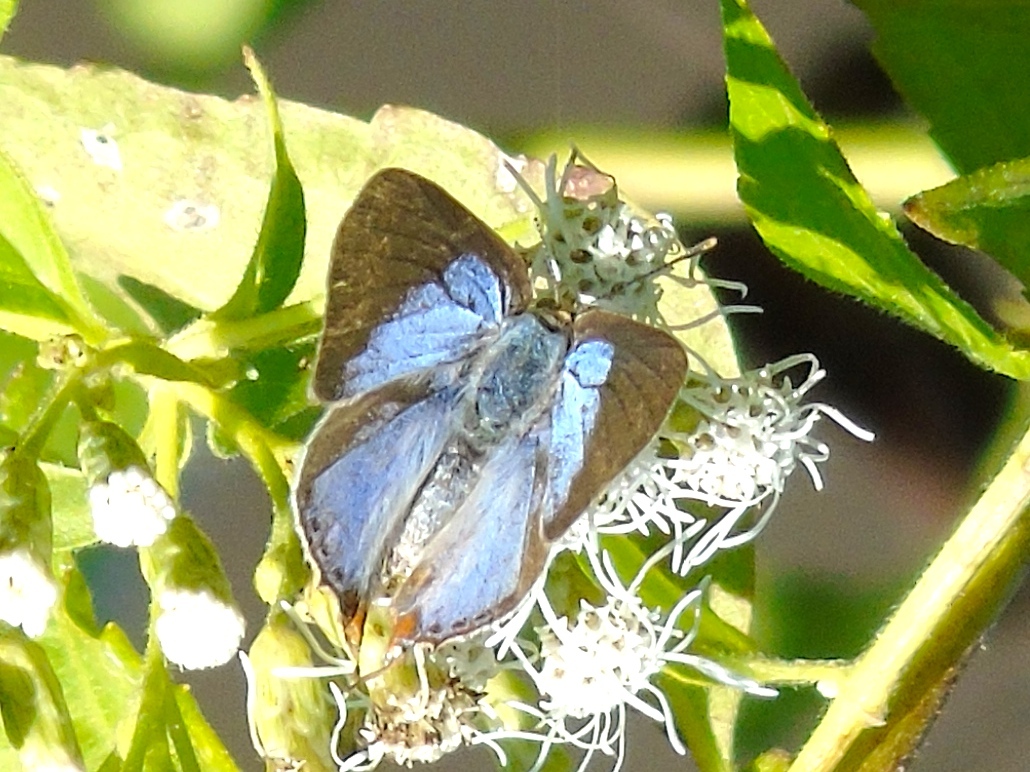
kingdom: Animalia
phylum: Arthropoda
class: Insecta
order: Lepidoptera
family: Lycaenidae
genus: Dolymorpha
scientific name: Dolymorpha jada
